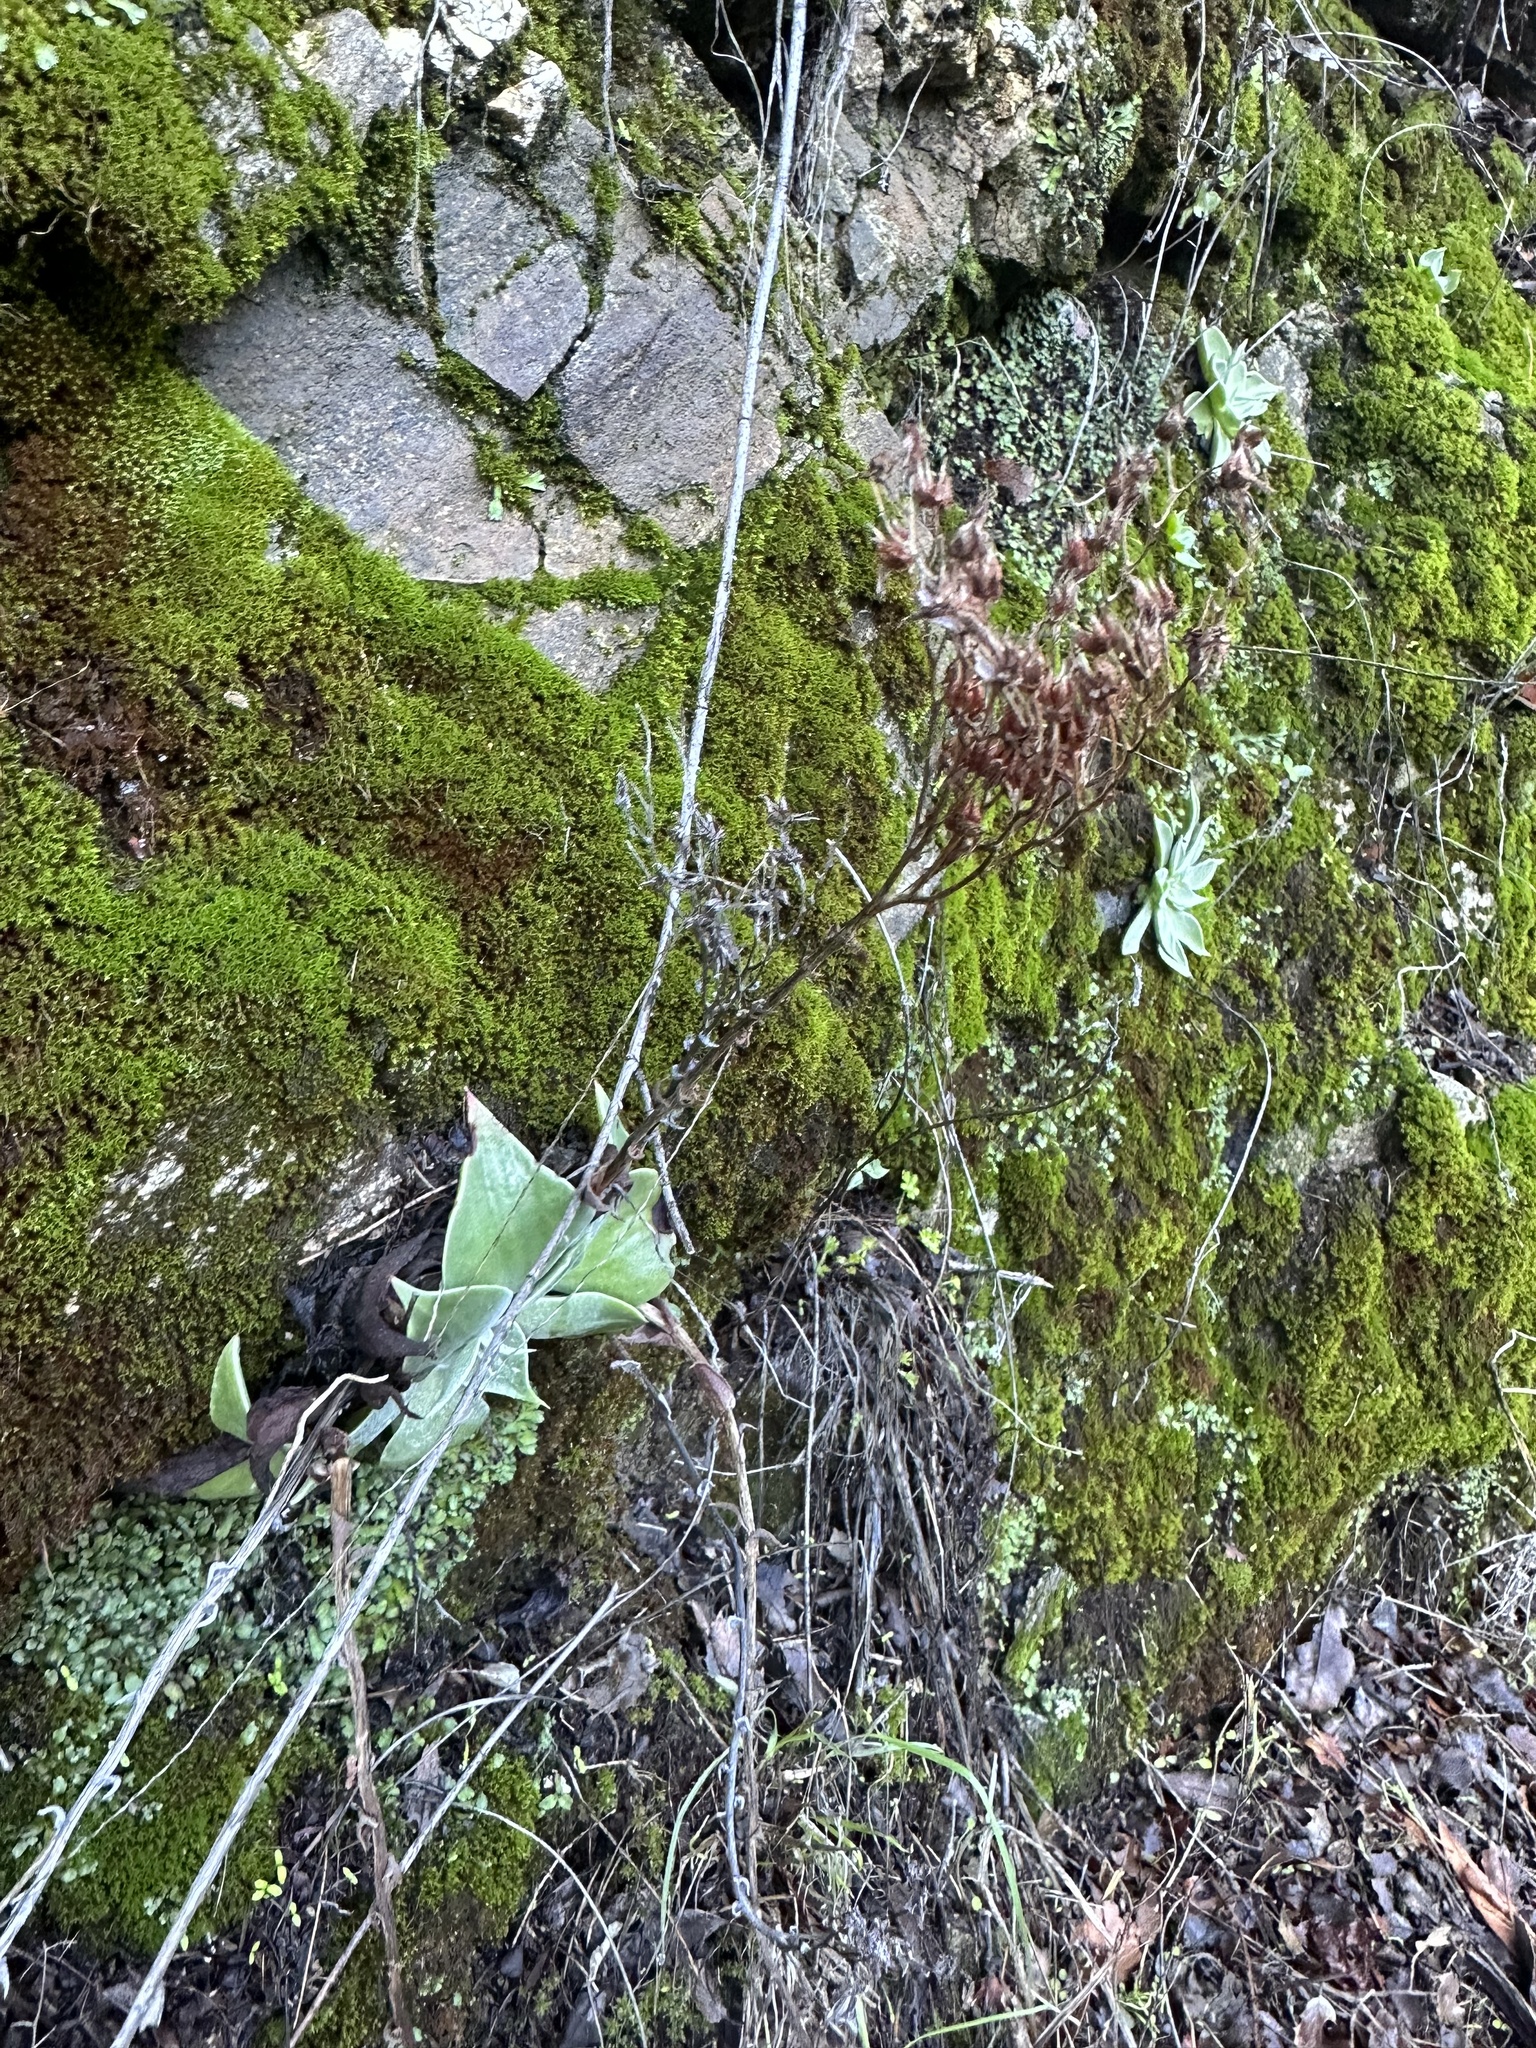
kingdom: Plantae
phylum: Tracheophyta
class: Magnoliopsida
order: Saxifragales
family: Crassulaceae
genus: Dudleya
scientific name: Dudleya cymosa
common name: Canyon dudleya
